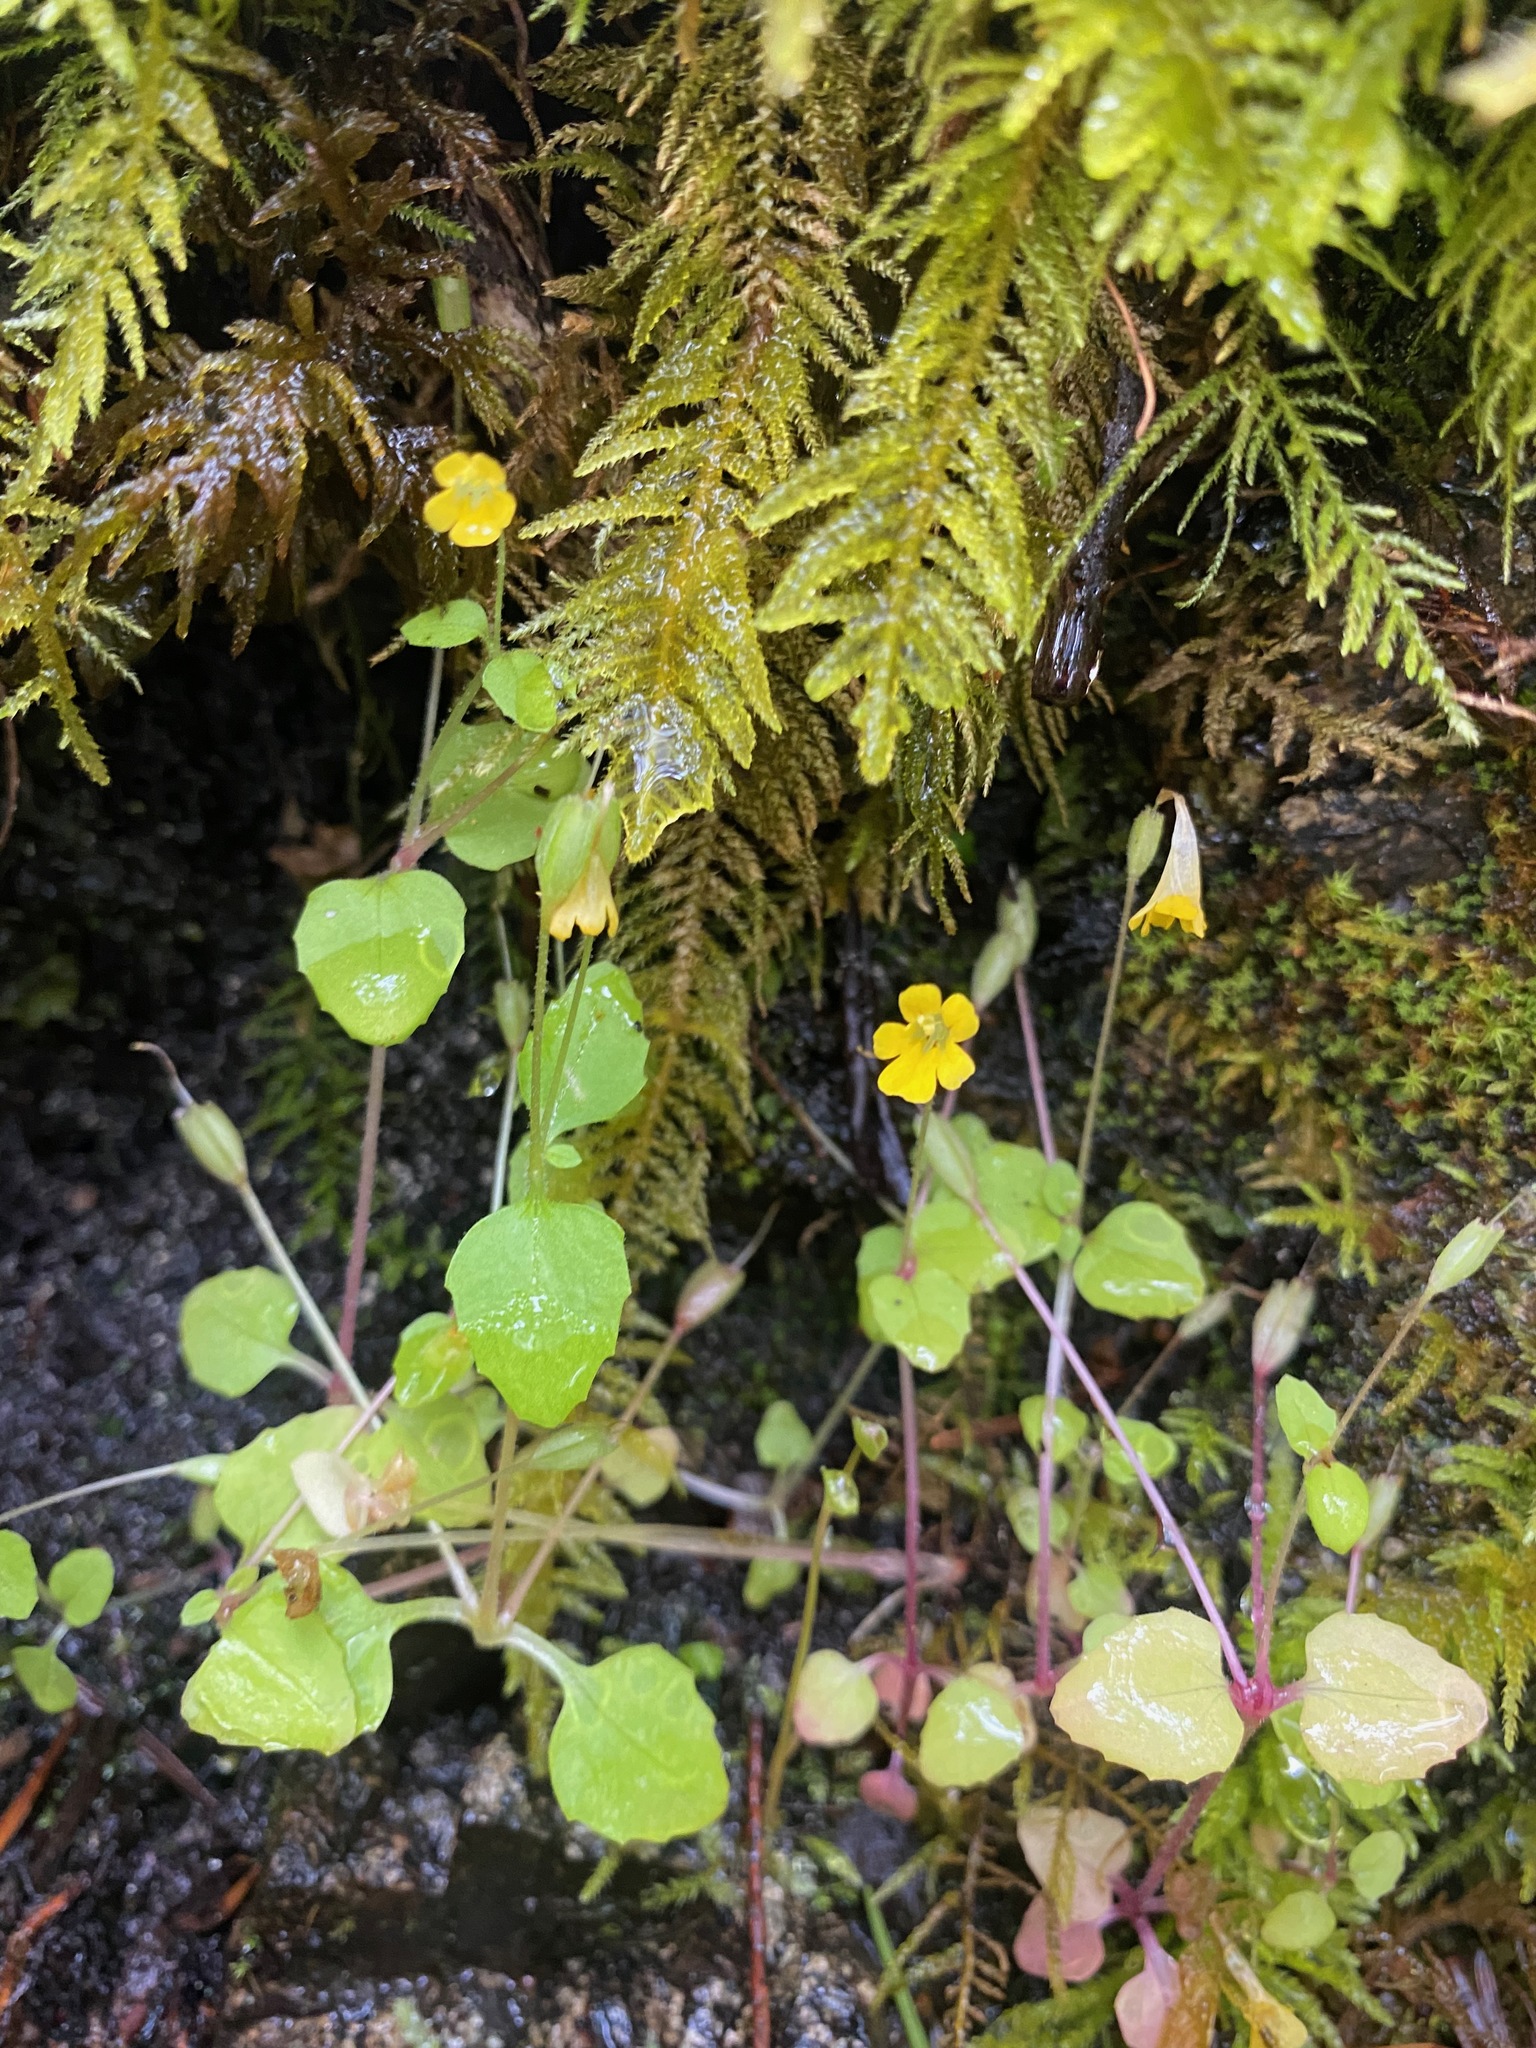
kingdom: Plantae
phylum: Tracheophyta
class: Magnoliopsida
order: Lamiales
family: Phrymaceae
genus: Erythranthe
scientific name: Erythranthe alsinoides
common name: Chickweed monkeyflower
